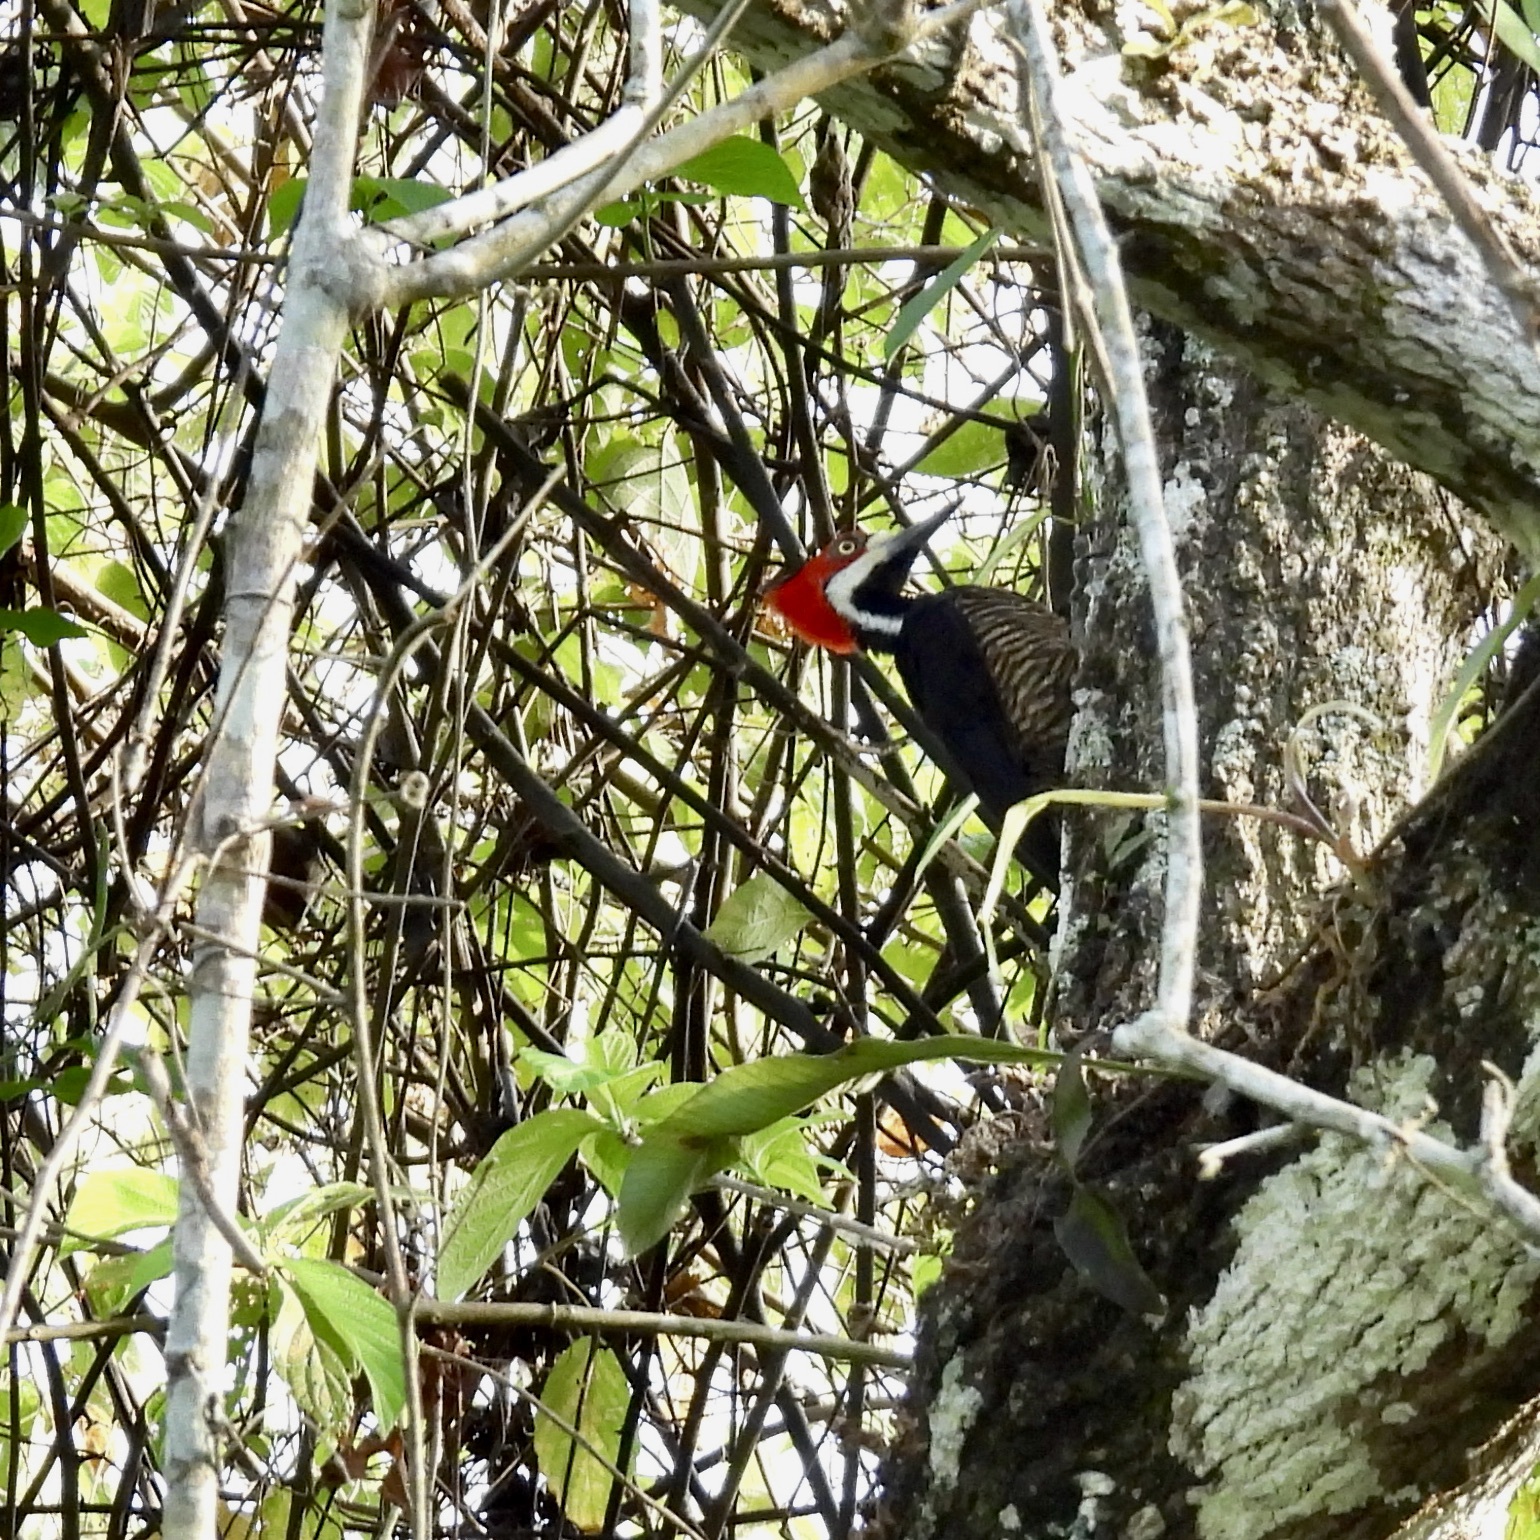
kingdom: Animalia
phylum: Chordata
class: Aves
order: Piciformes
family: Picidae
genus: Campephilus
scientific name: Campephilus melanoleucos
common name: Crimson-crested woodpecker
